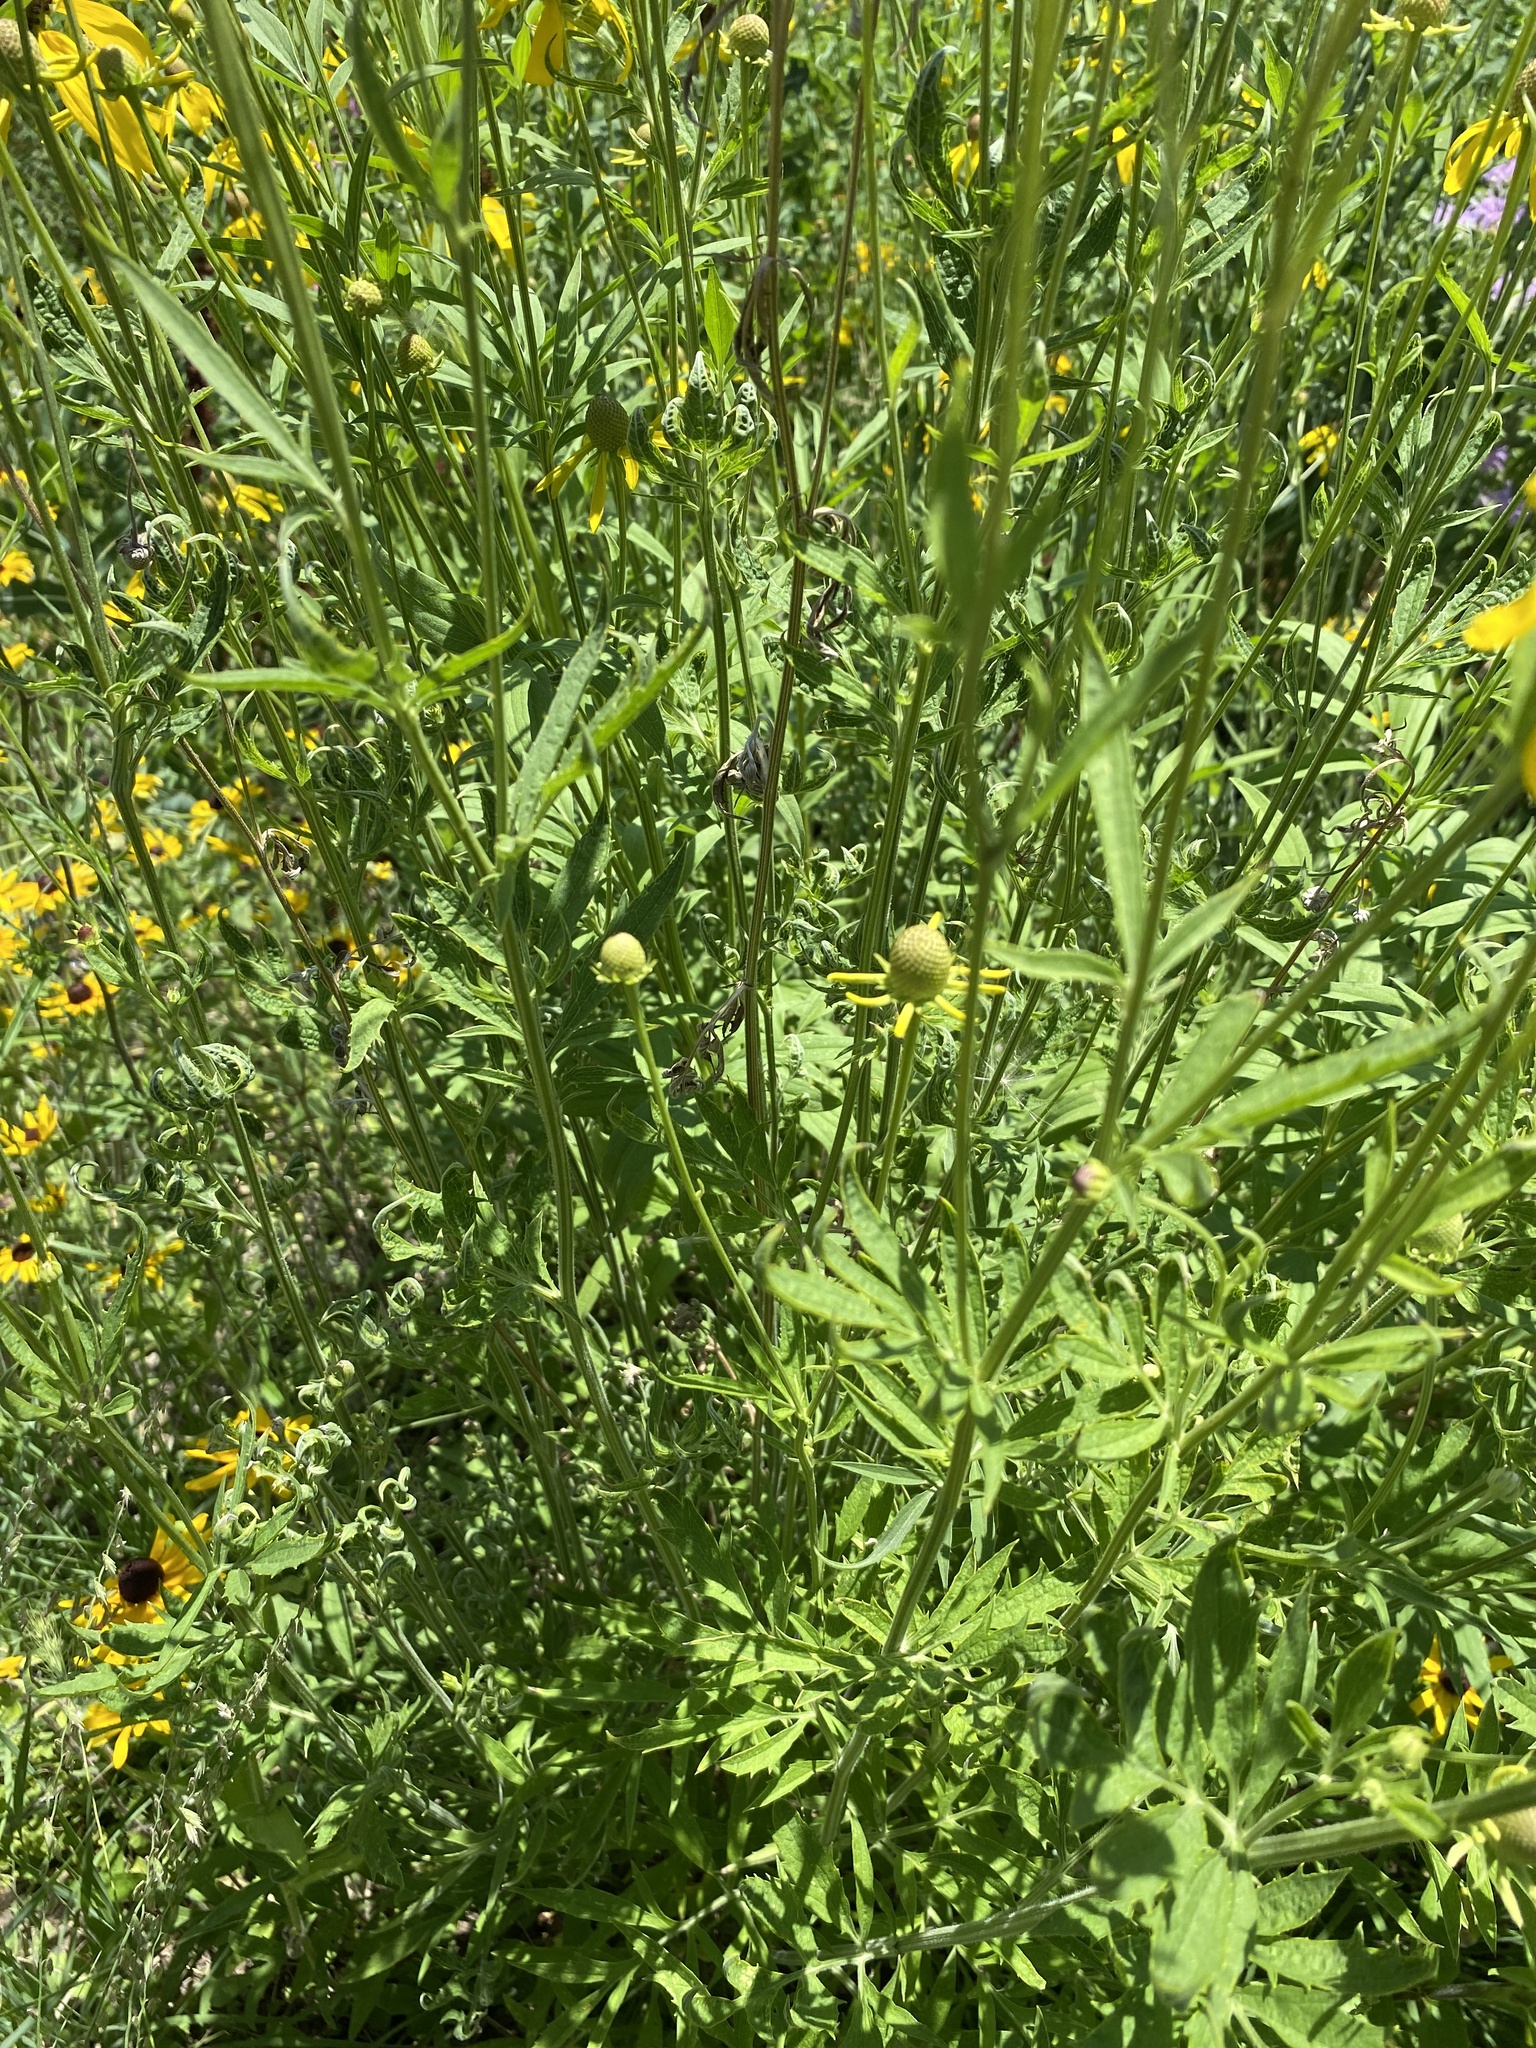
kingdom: Plantae
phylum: Tracheophyta
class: Magnoliopsida
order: Asterales
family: Asteraceae
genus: Ratibida
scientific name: Ratibida pinnata
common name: Drooping prairie-coneflower
